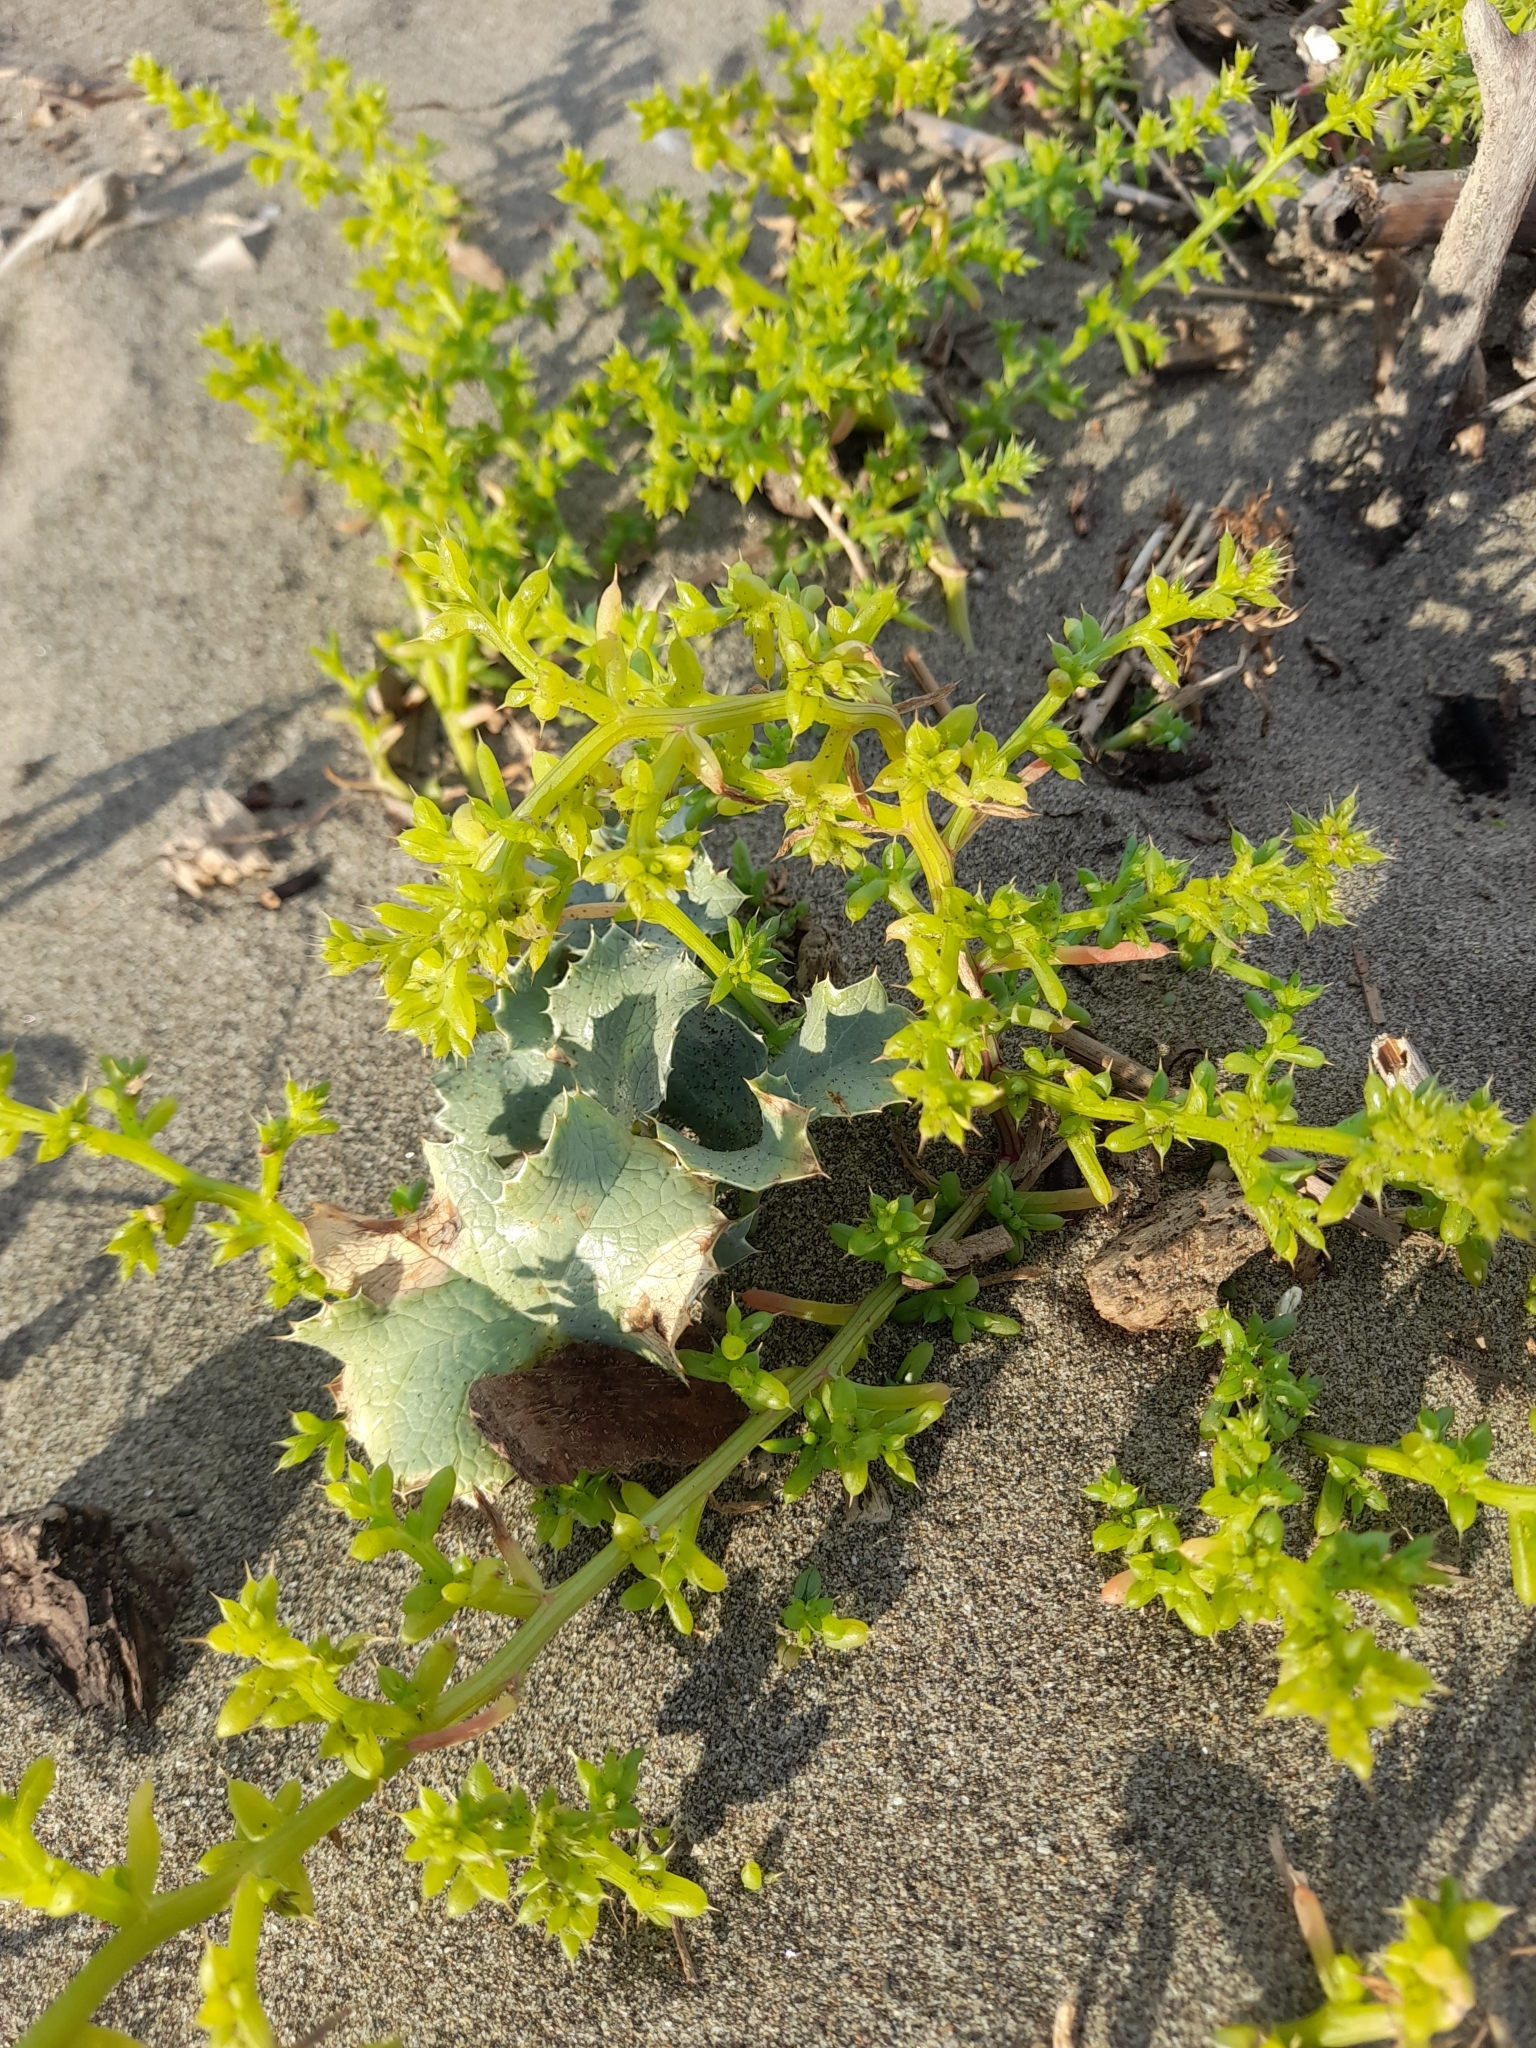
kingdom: Plantae
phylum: Tracheophyta
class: Magnoliopsida
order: Caryophyllales
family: Amaranthaceae
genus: Salsola
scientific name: Salsola squarrosa
